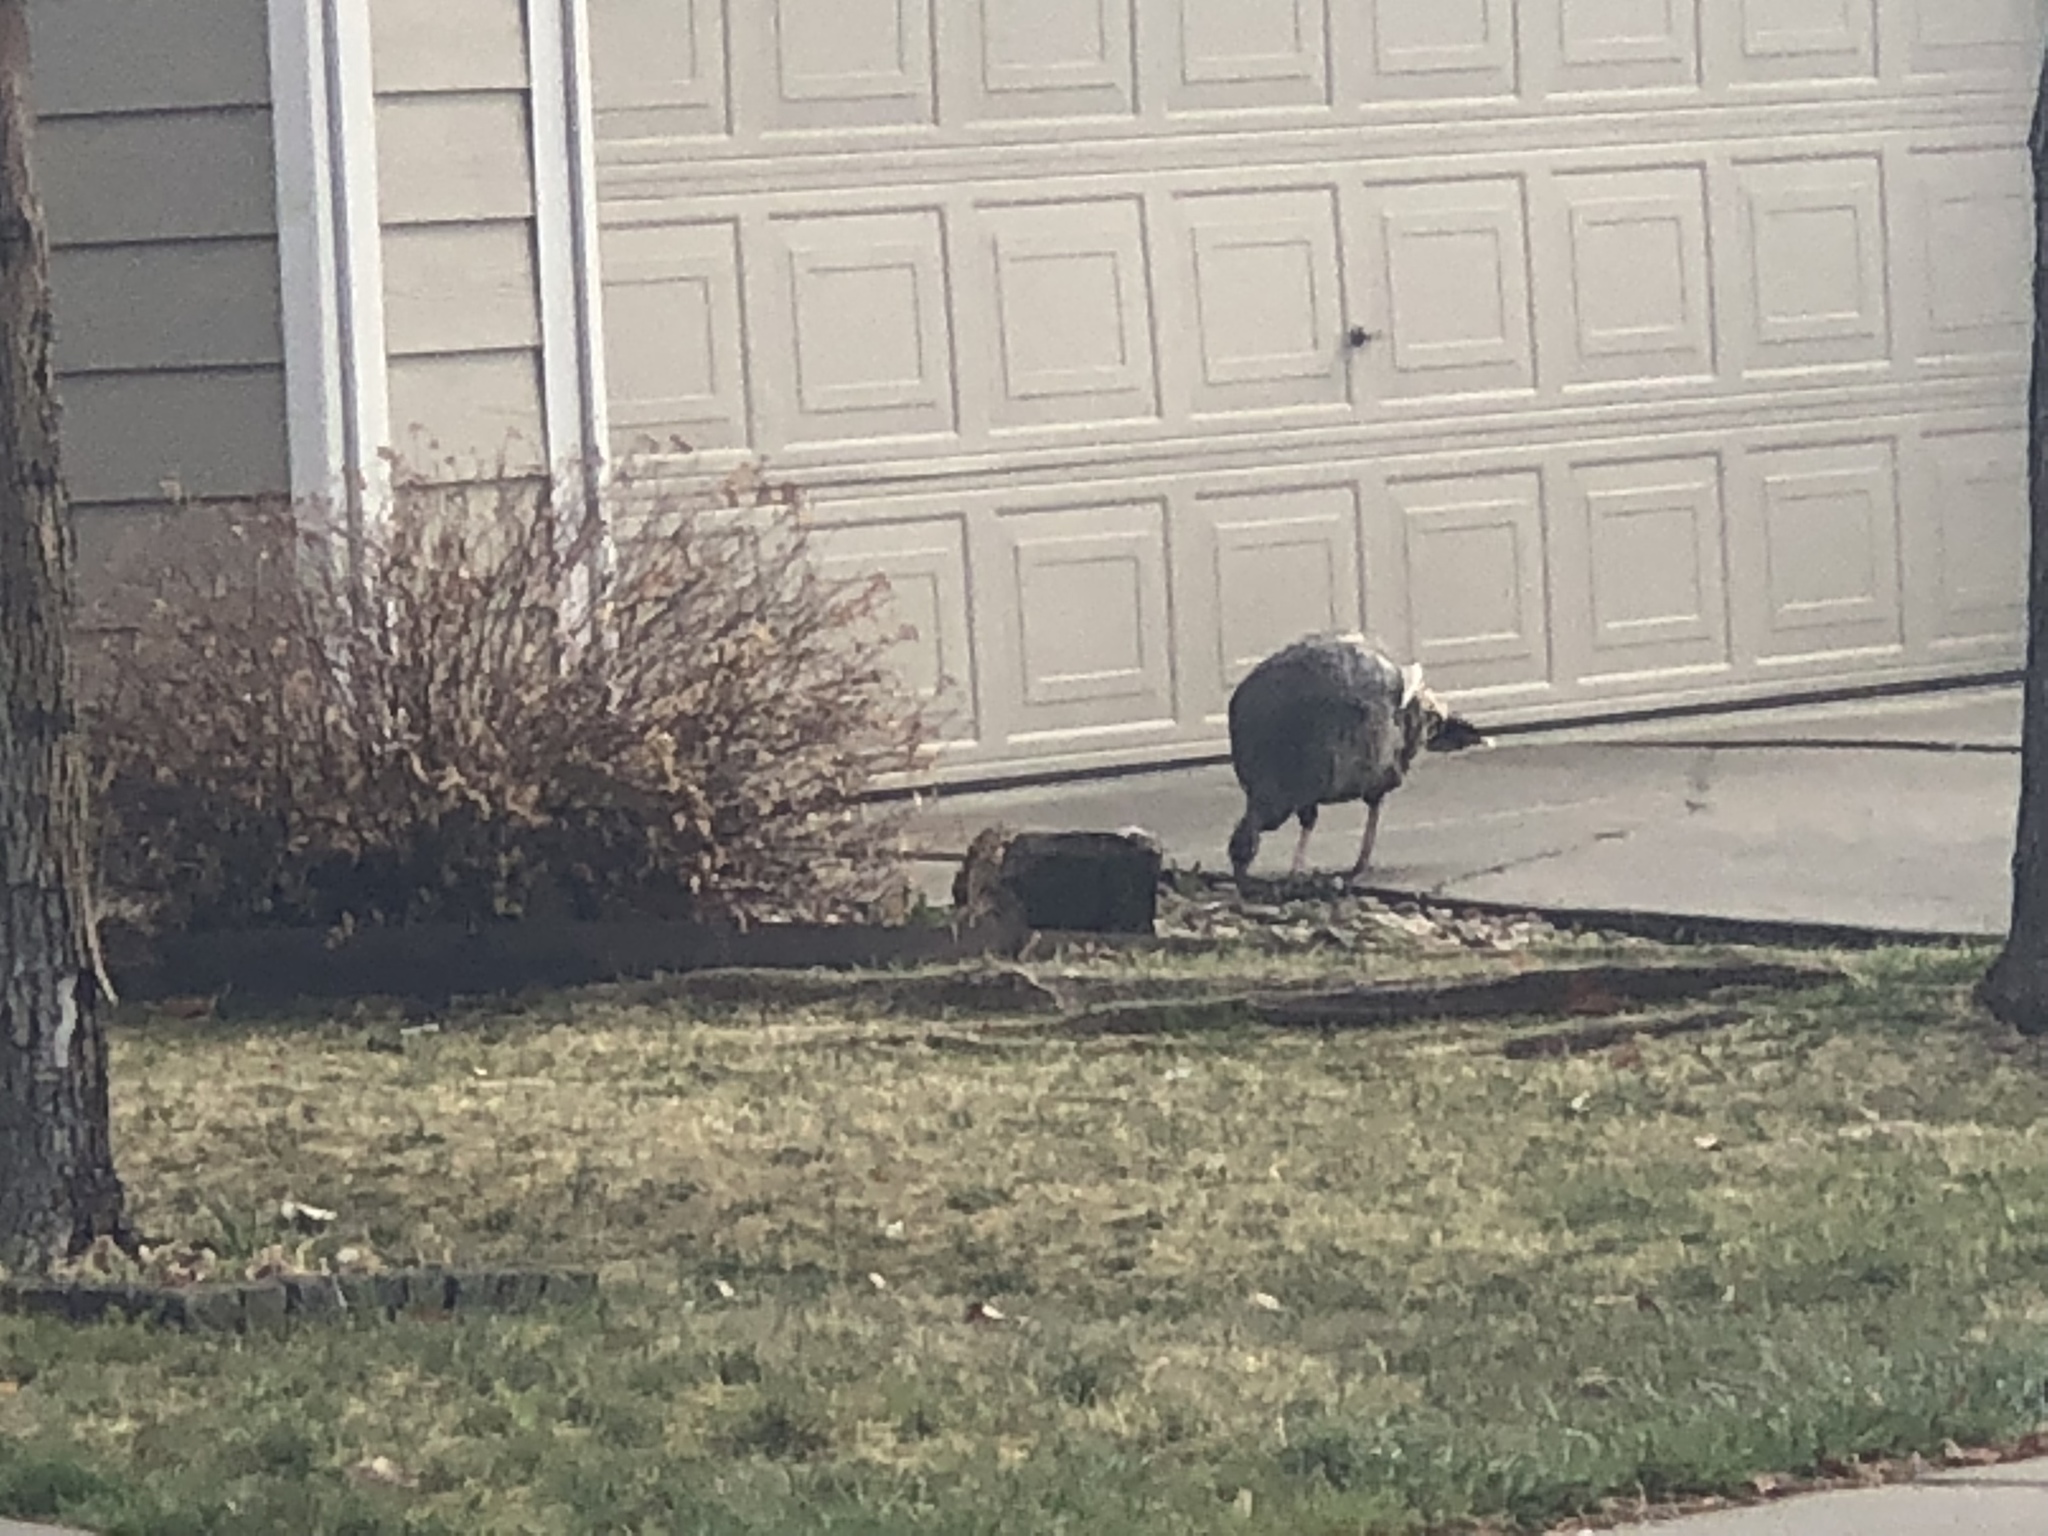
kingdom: Animalia
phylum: Chordata
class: Aves
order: Galliformes
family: Phasianidae
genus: Meleagris
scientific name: Meleagris gallopavo
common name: Wild turkey
